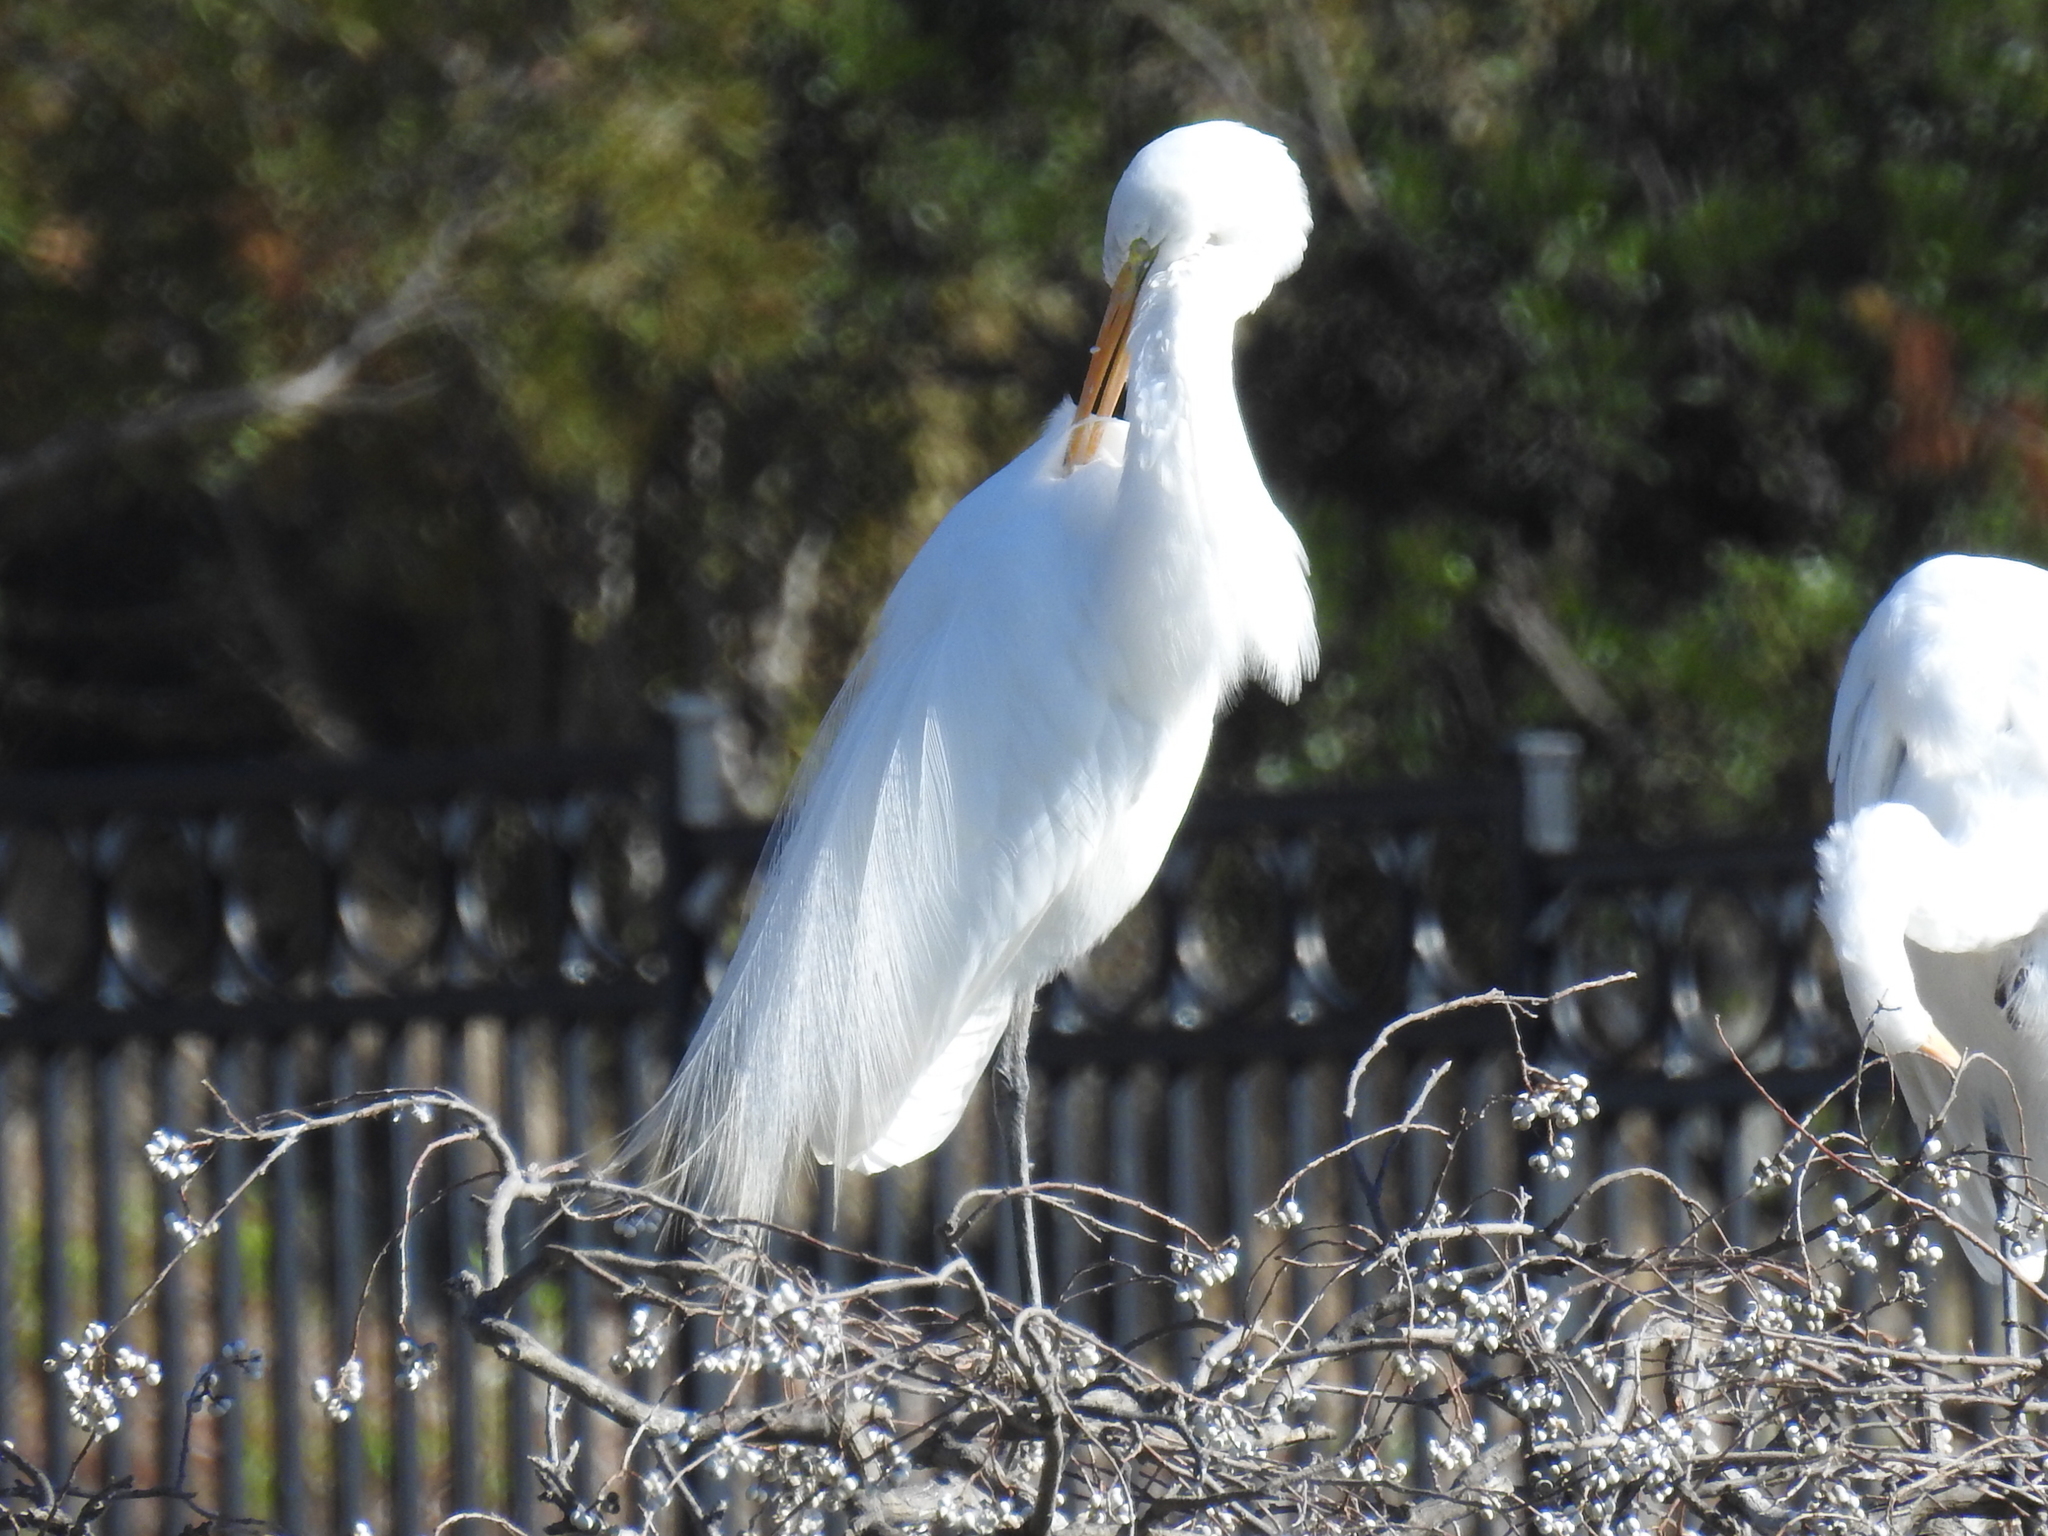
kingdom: Animalia
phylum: Chordata
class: Aves
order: Pelecaniformes
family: Ardeidae
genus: Ardea
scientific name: Ardea alba
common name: Great egret
